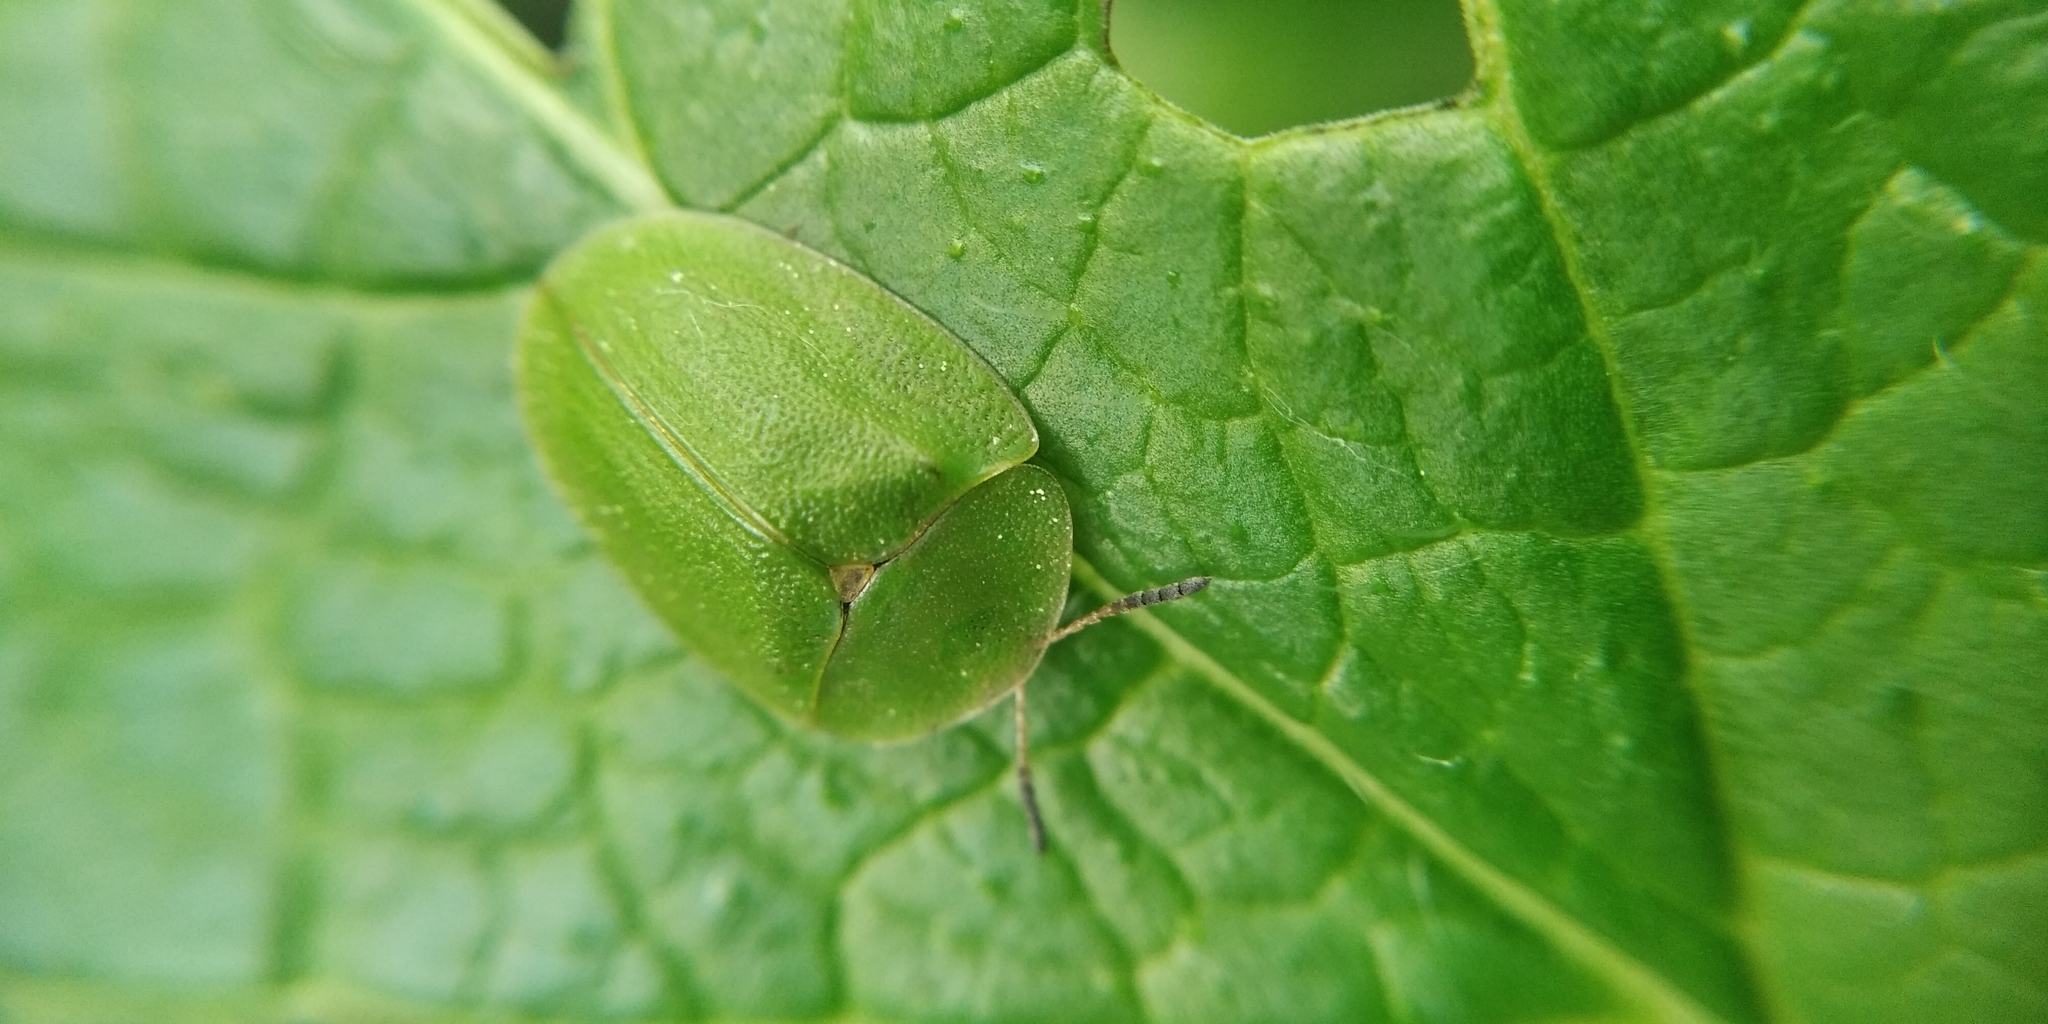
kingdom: Animalia
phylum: Arthropoda
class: Insecta
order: Coleoptera
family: Chrysomelidae
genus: Cassida
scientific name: Cassida viridis
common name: Green tortoise beetle
